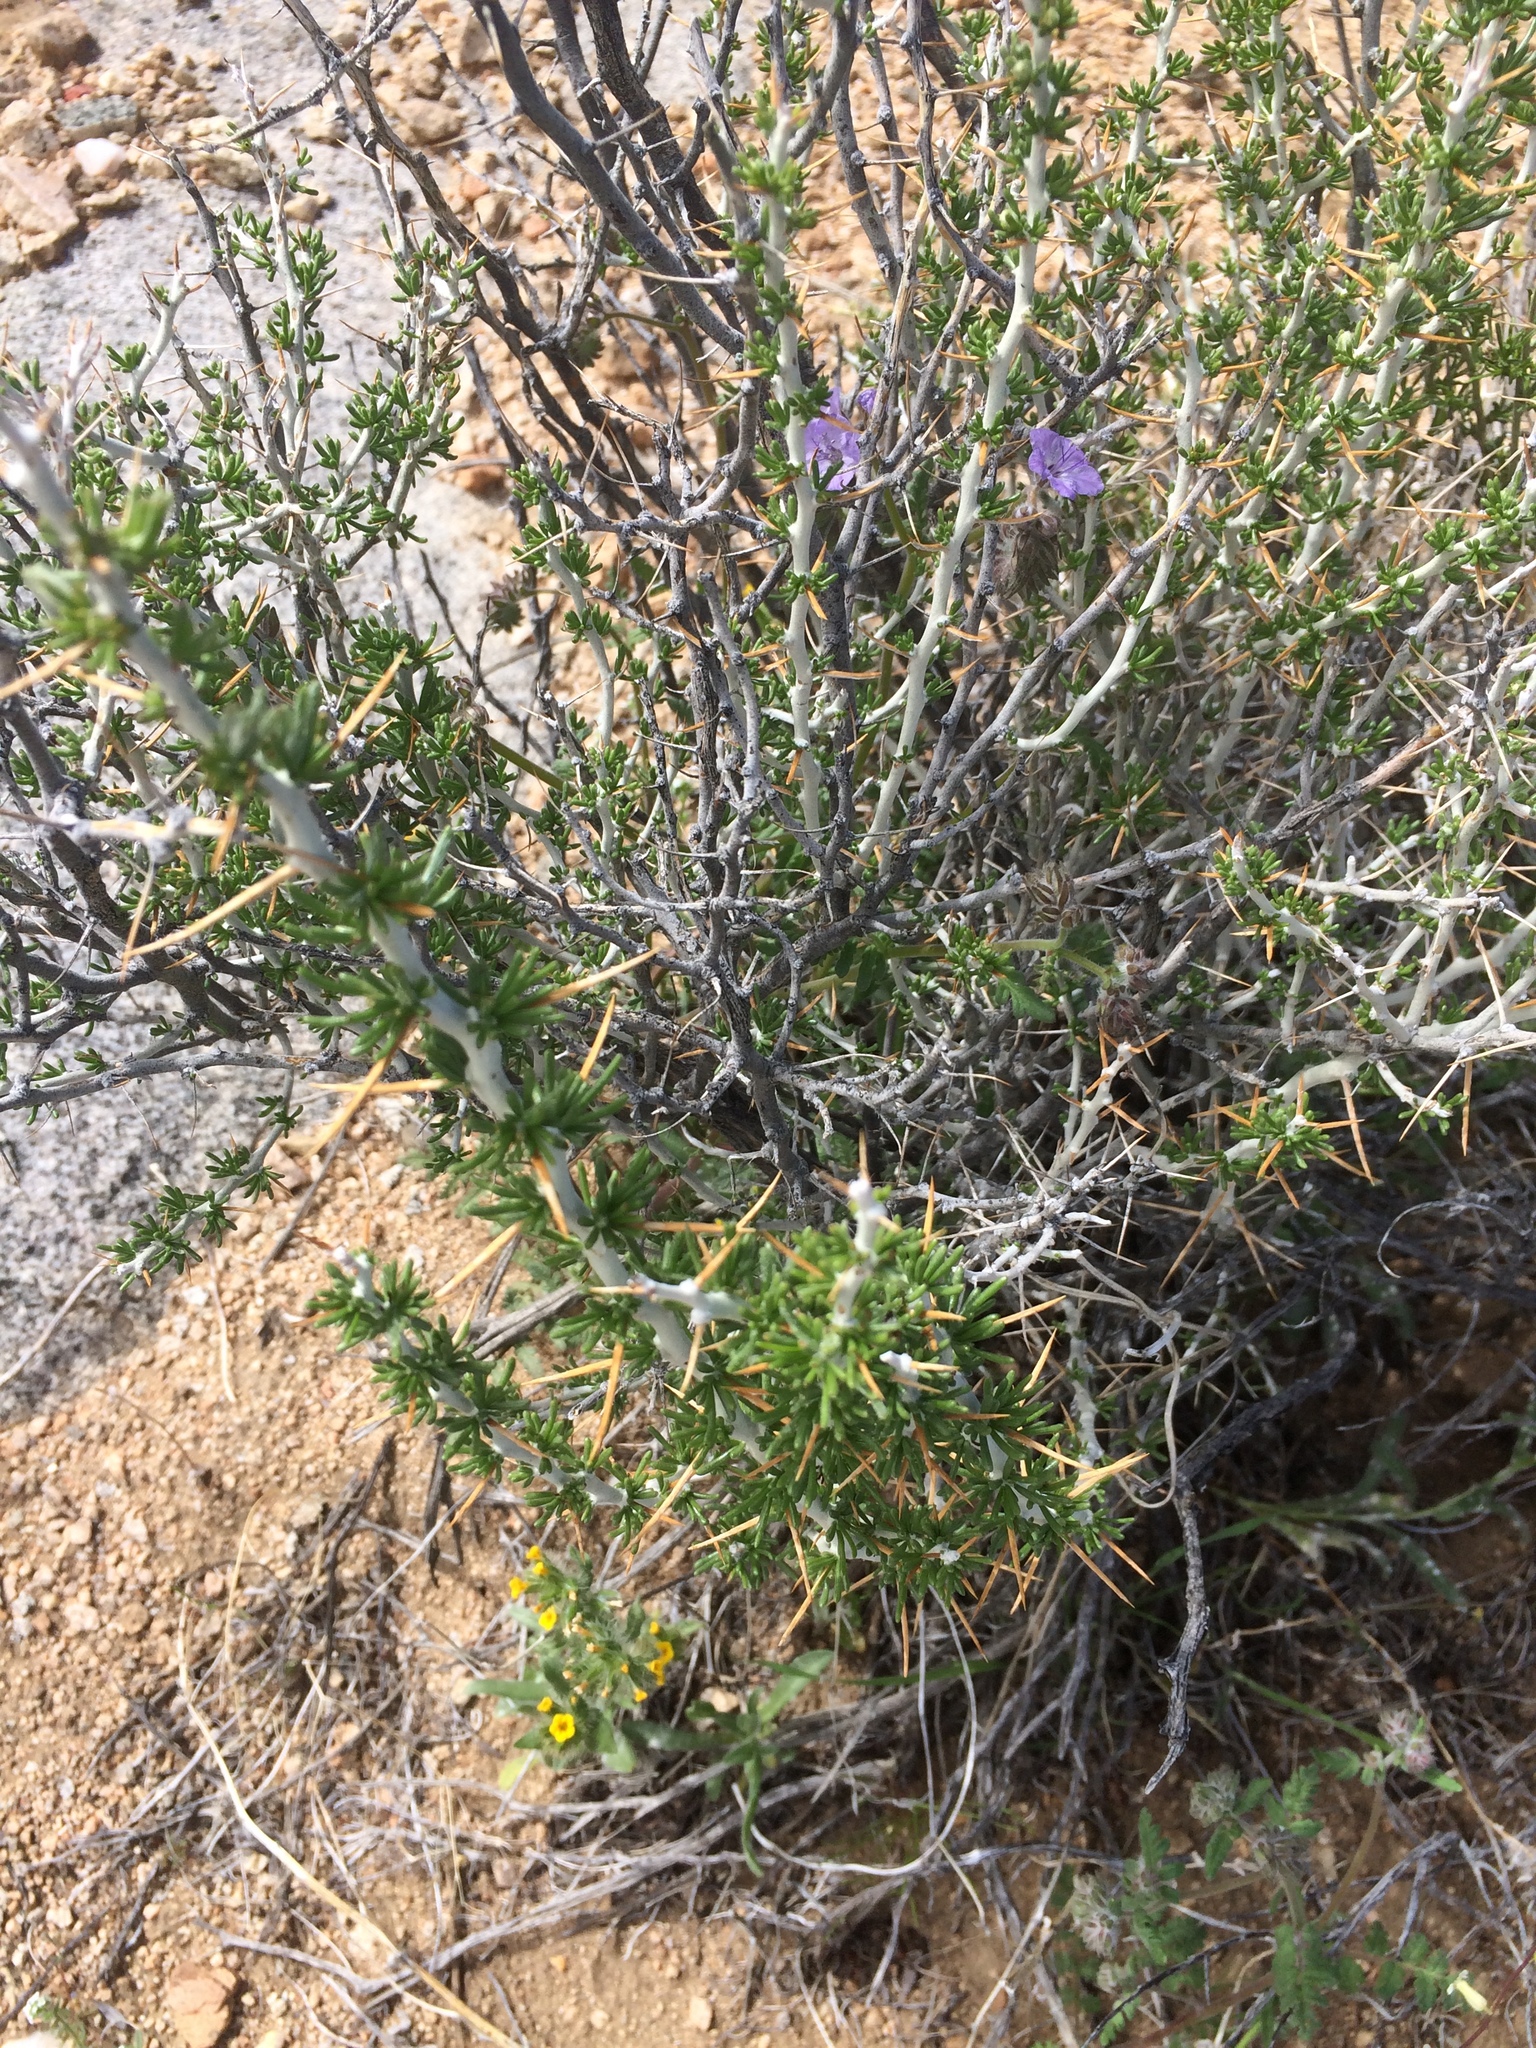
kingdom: Plantae
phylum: Tracheophyta
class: Magnoliopsida
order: Asterales
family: Asteraceae
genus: Tetradymia
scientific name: Tetradymia axillaris
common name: Long-spine horsebrush
